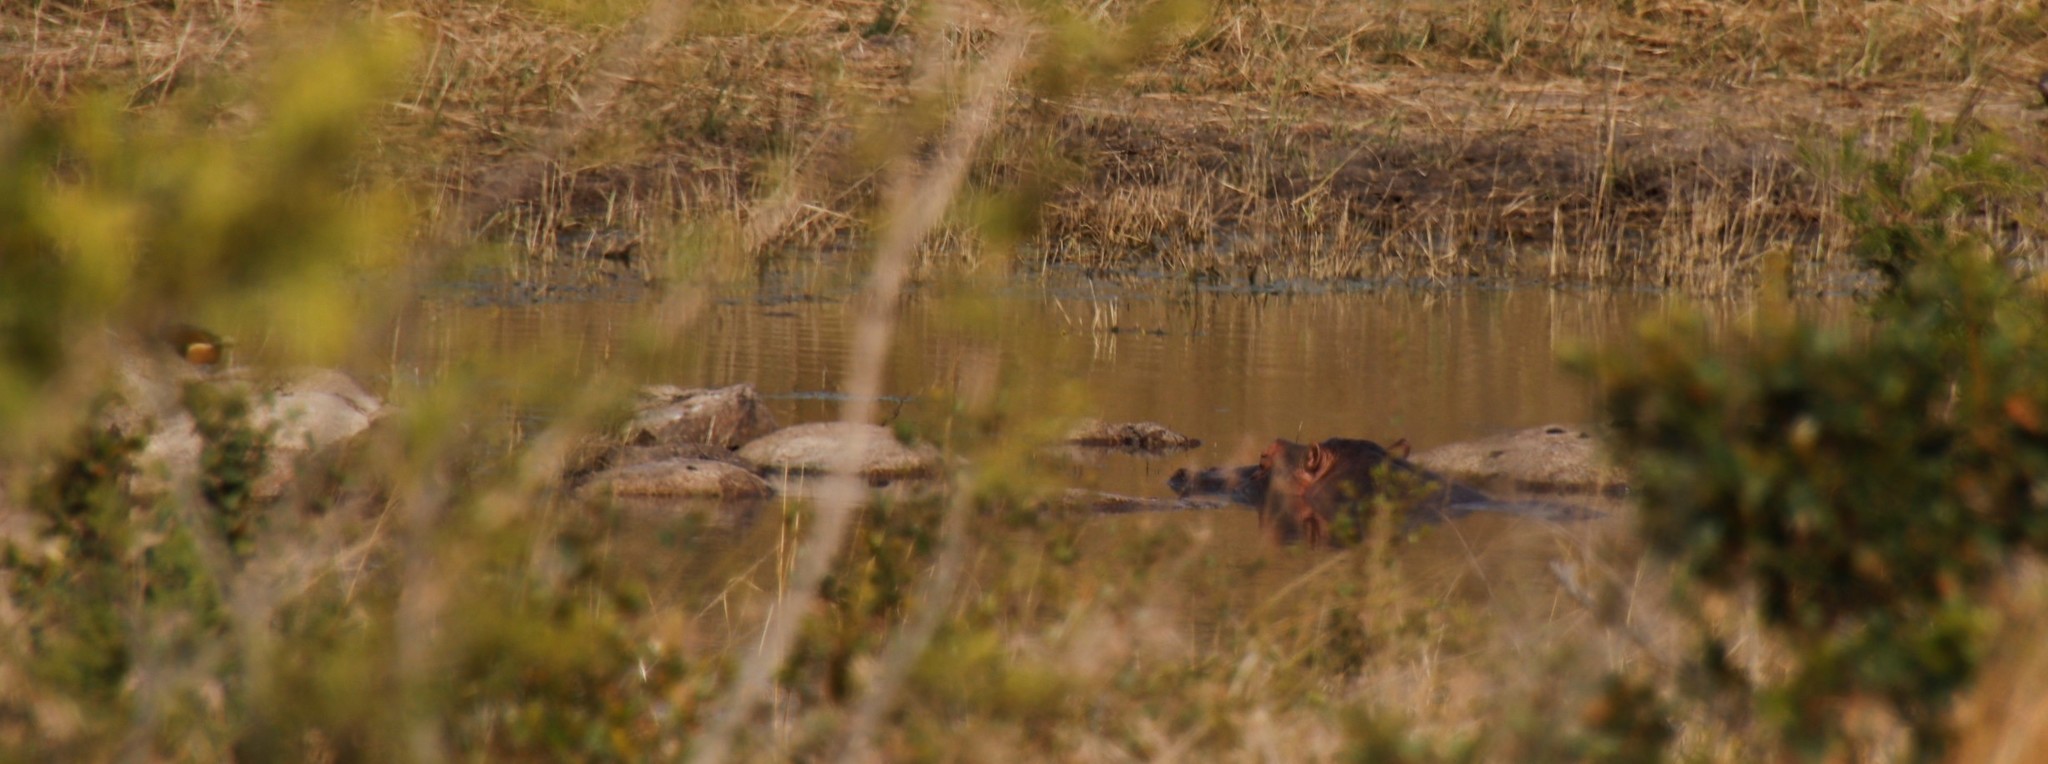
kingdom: Animalia
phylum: Chordata
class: Mammalia
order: Artiodactyla
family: Hippopotamidae
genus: Hippopotamus
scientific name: Hippopotamus amphibius
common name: Common hippopotamus
